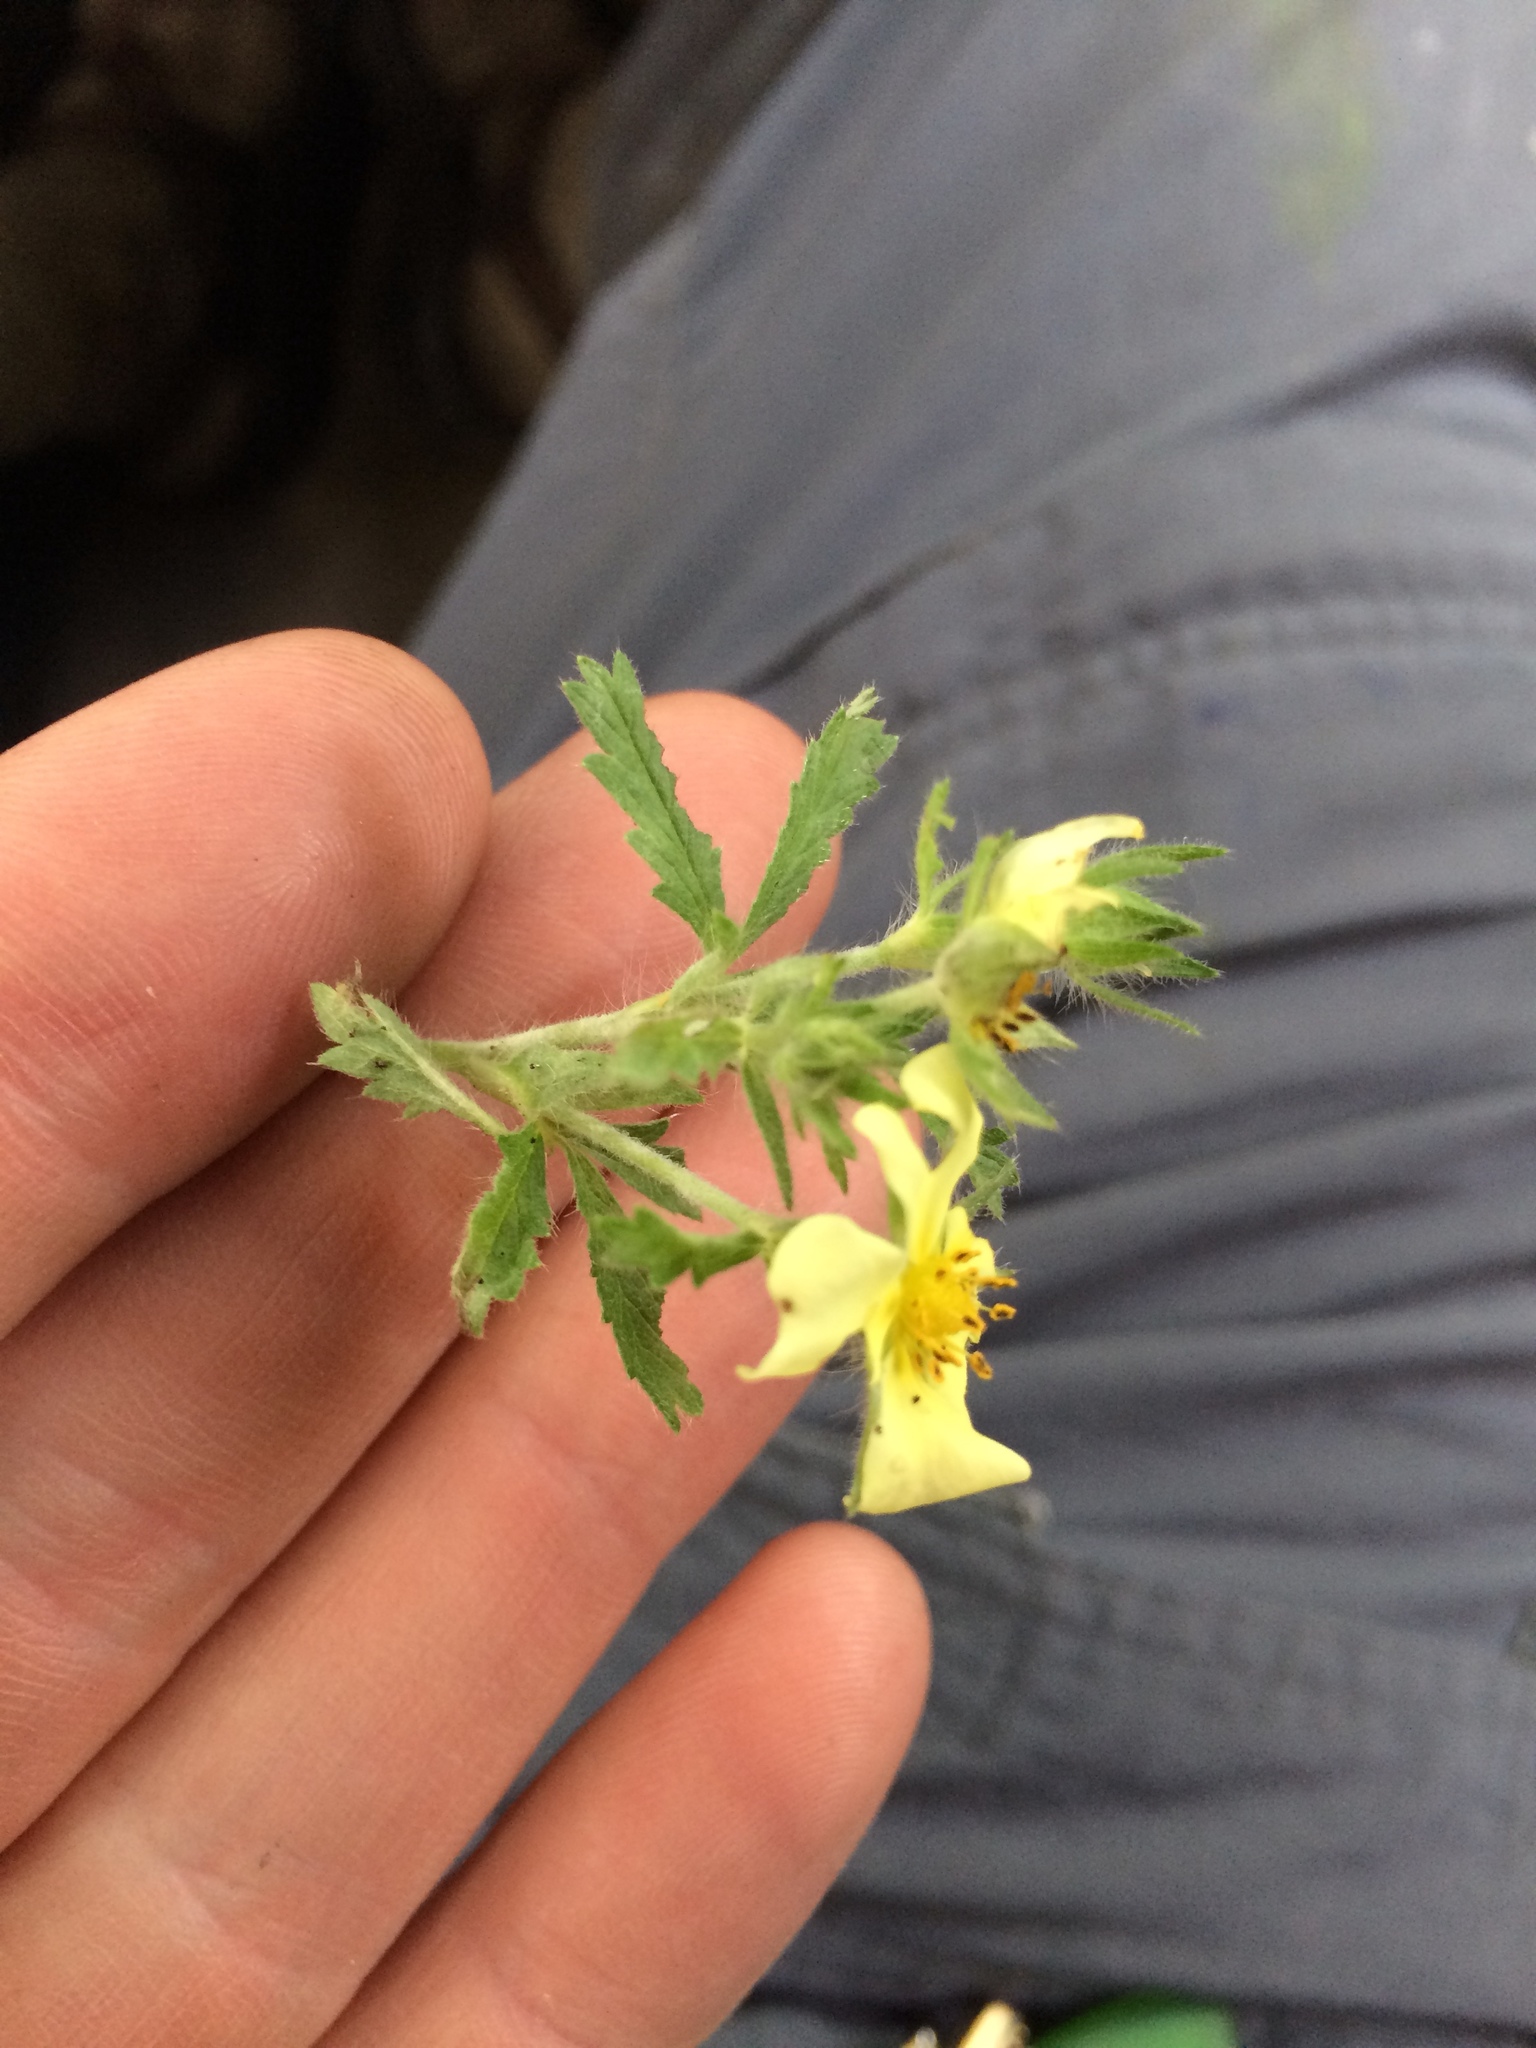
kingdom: Plantae
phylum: Tracheophyta
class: Magnoliopsida
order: Rosales
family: Rosaceae
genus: Potentilla
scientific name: Potentilla recta
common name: Sulphur cinquefoil
